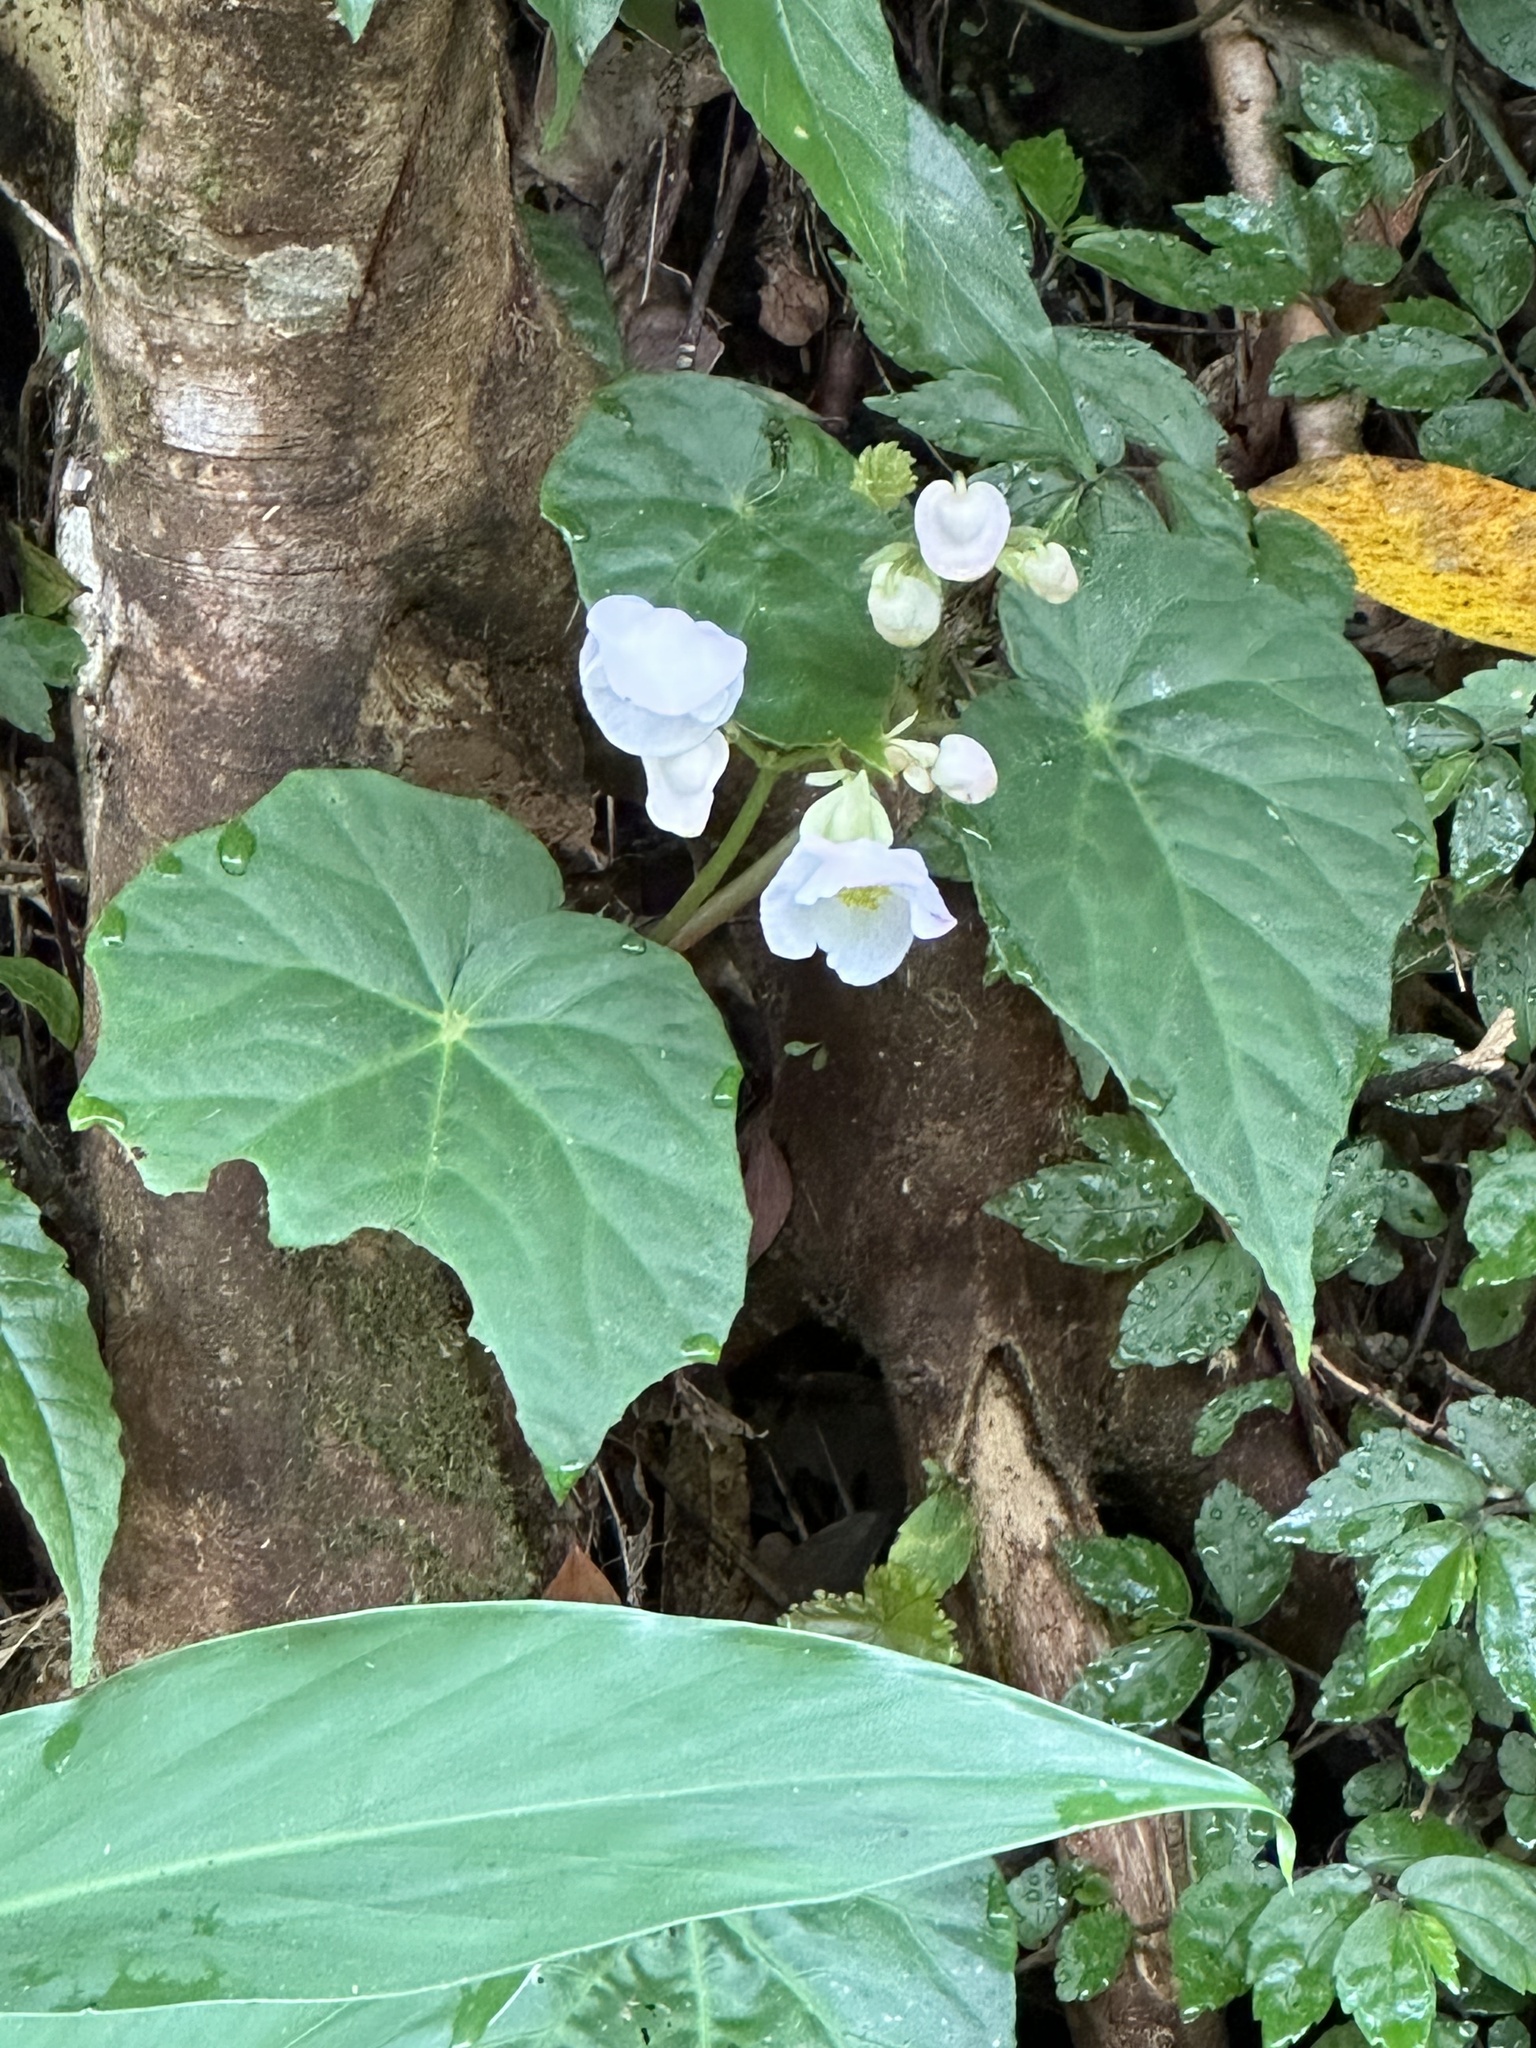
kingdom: Plantae
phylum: Tracheophyta
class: Magnoliopsida
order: Cucurbitales
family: Begoniaceae
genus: Begonia
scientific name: Begonia formosana
